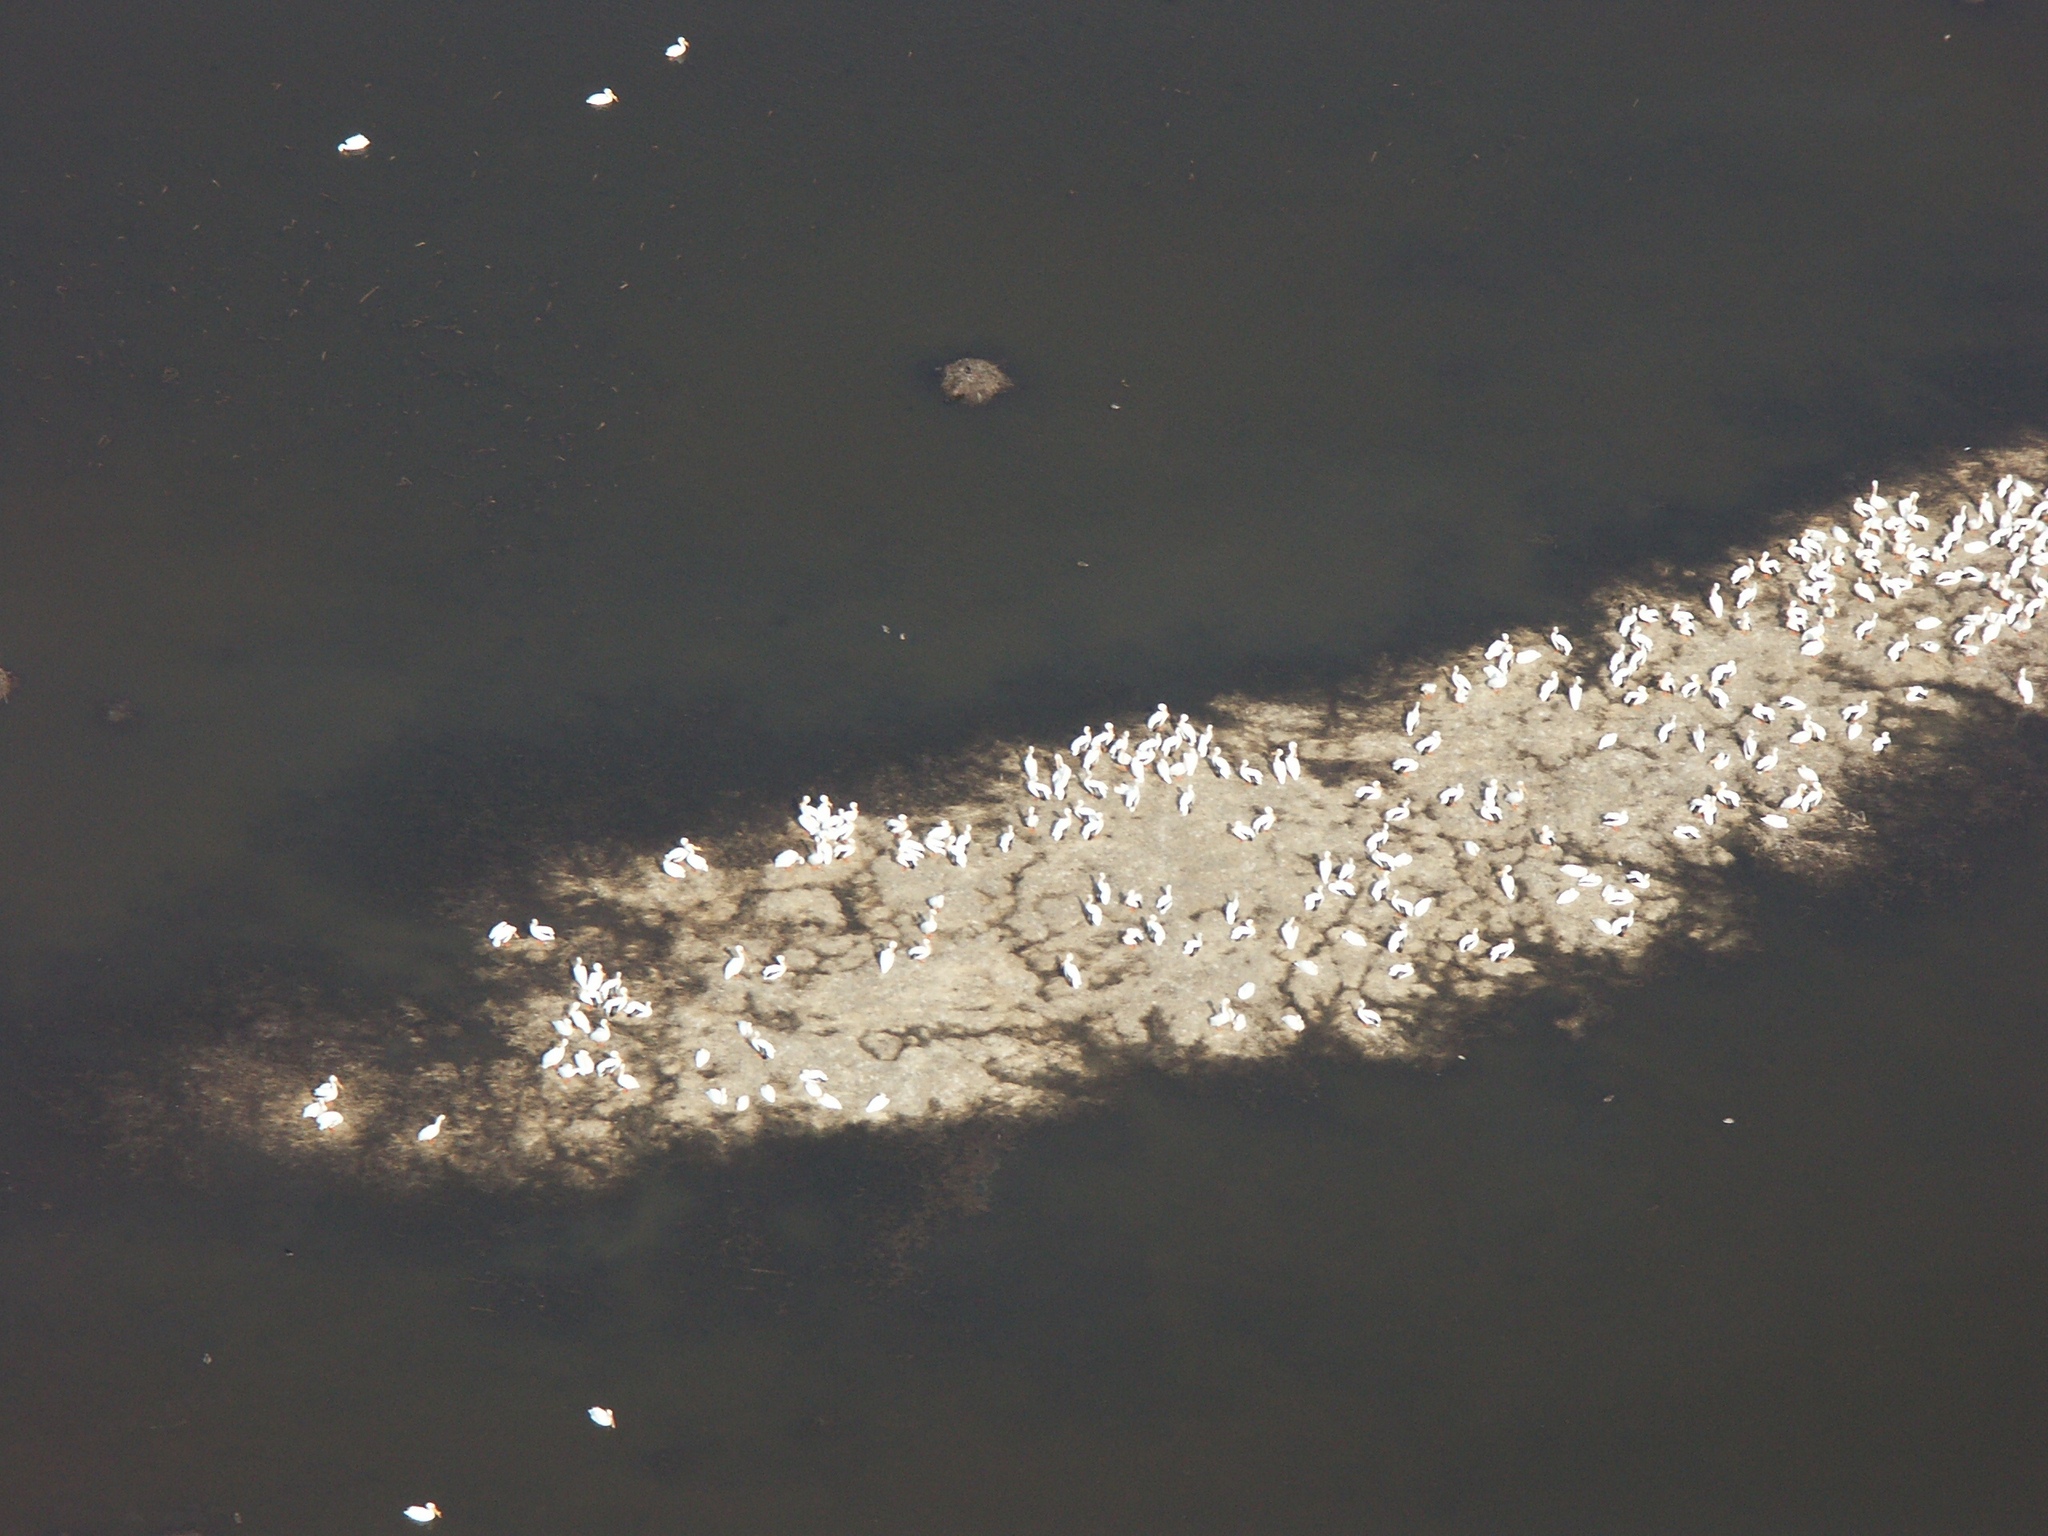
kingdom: Animalia
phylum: Chordata
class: Aves
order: Pelecaniformes
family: Pelecanidae
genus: Pelecanus
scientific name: Pelecanus erythrorhynchos
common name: American white pelican
